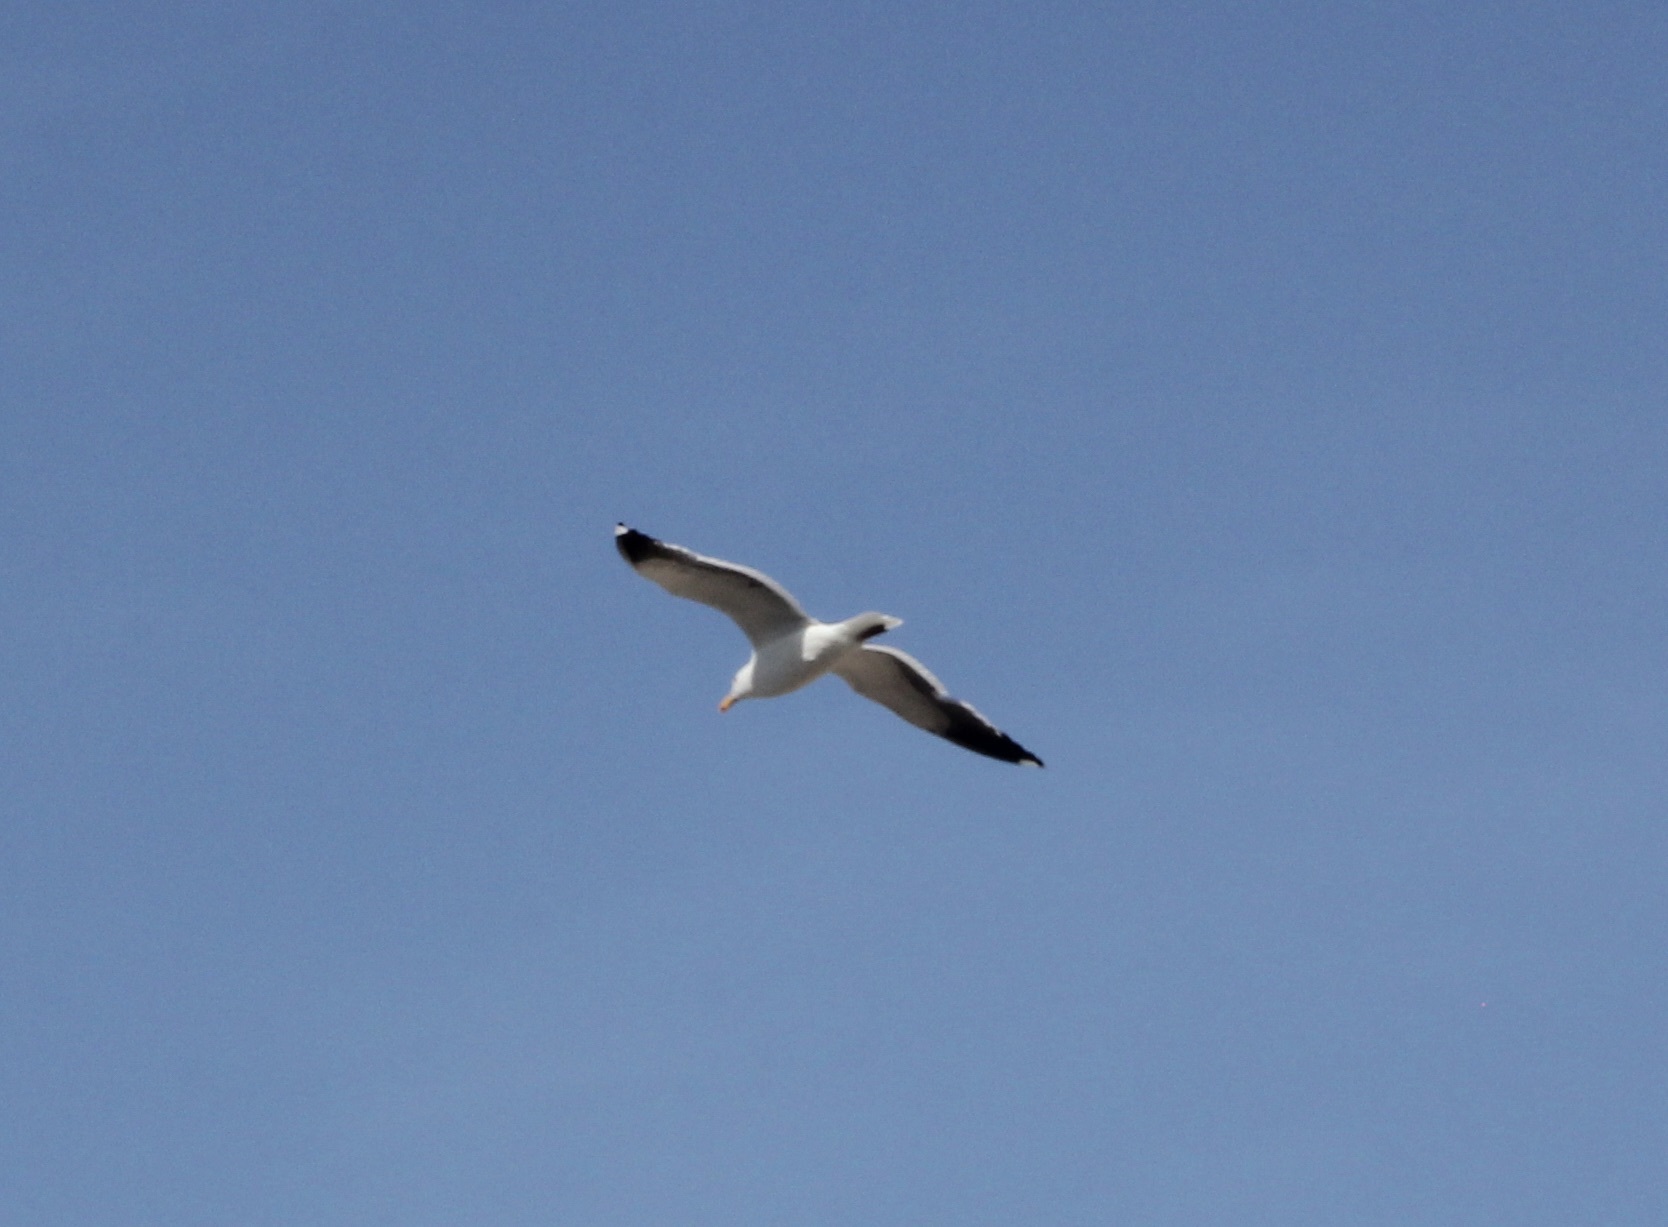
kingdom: Animalia
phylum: Chordata
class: Aves
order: Charadriiformes
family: Laridae
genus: Larus
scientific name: Larus occidentalis
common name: Western gull
